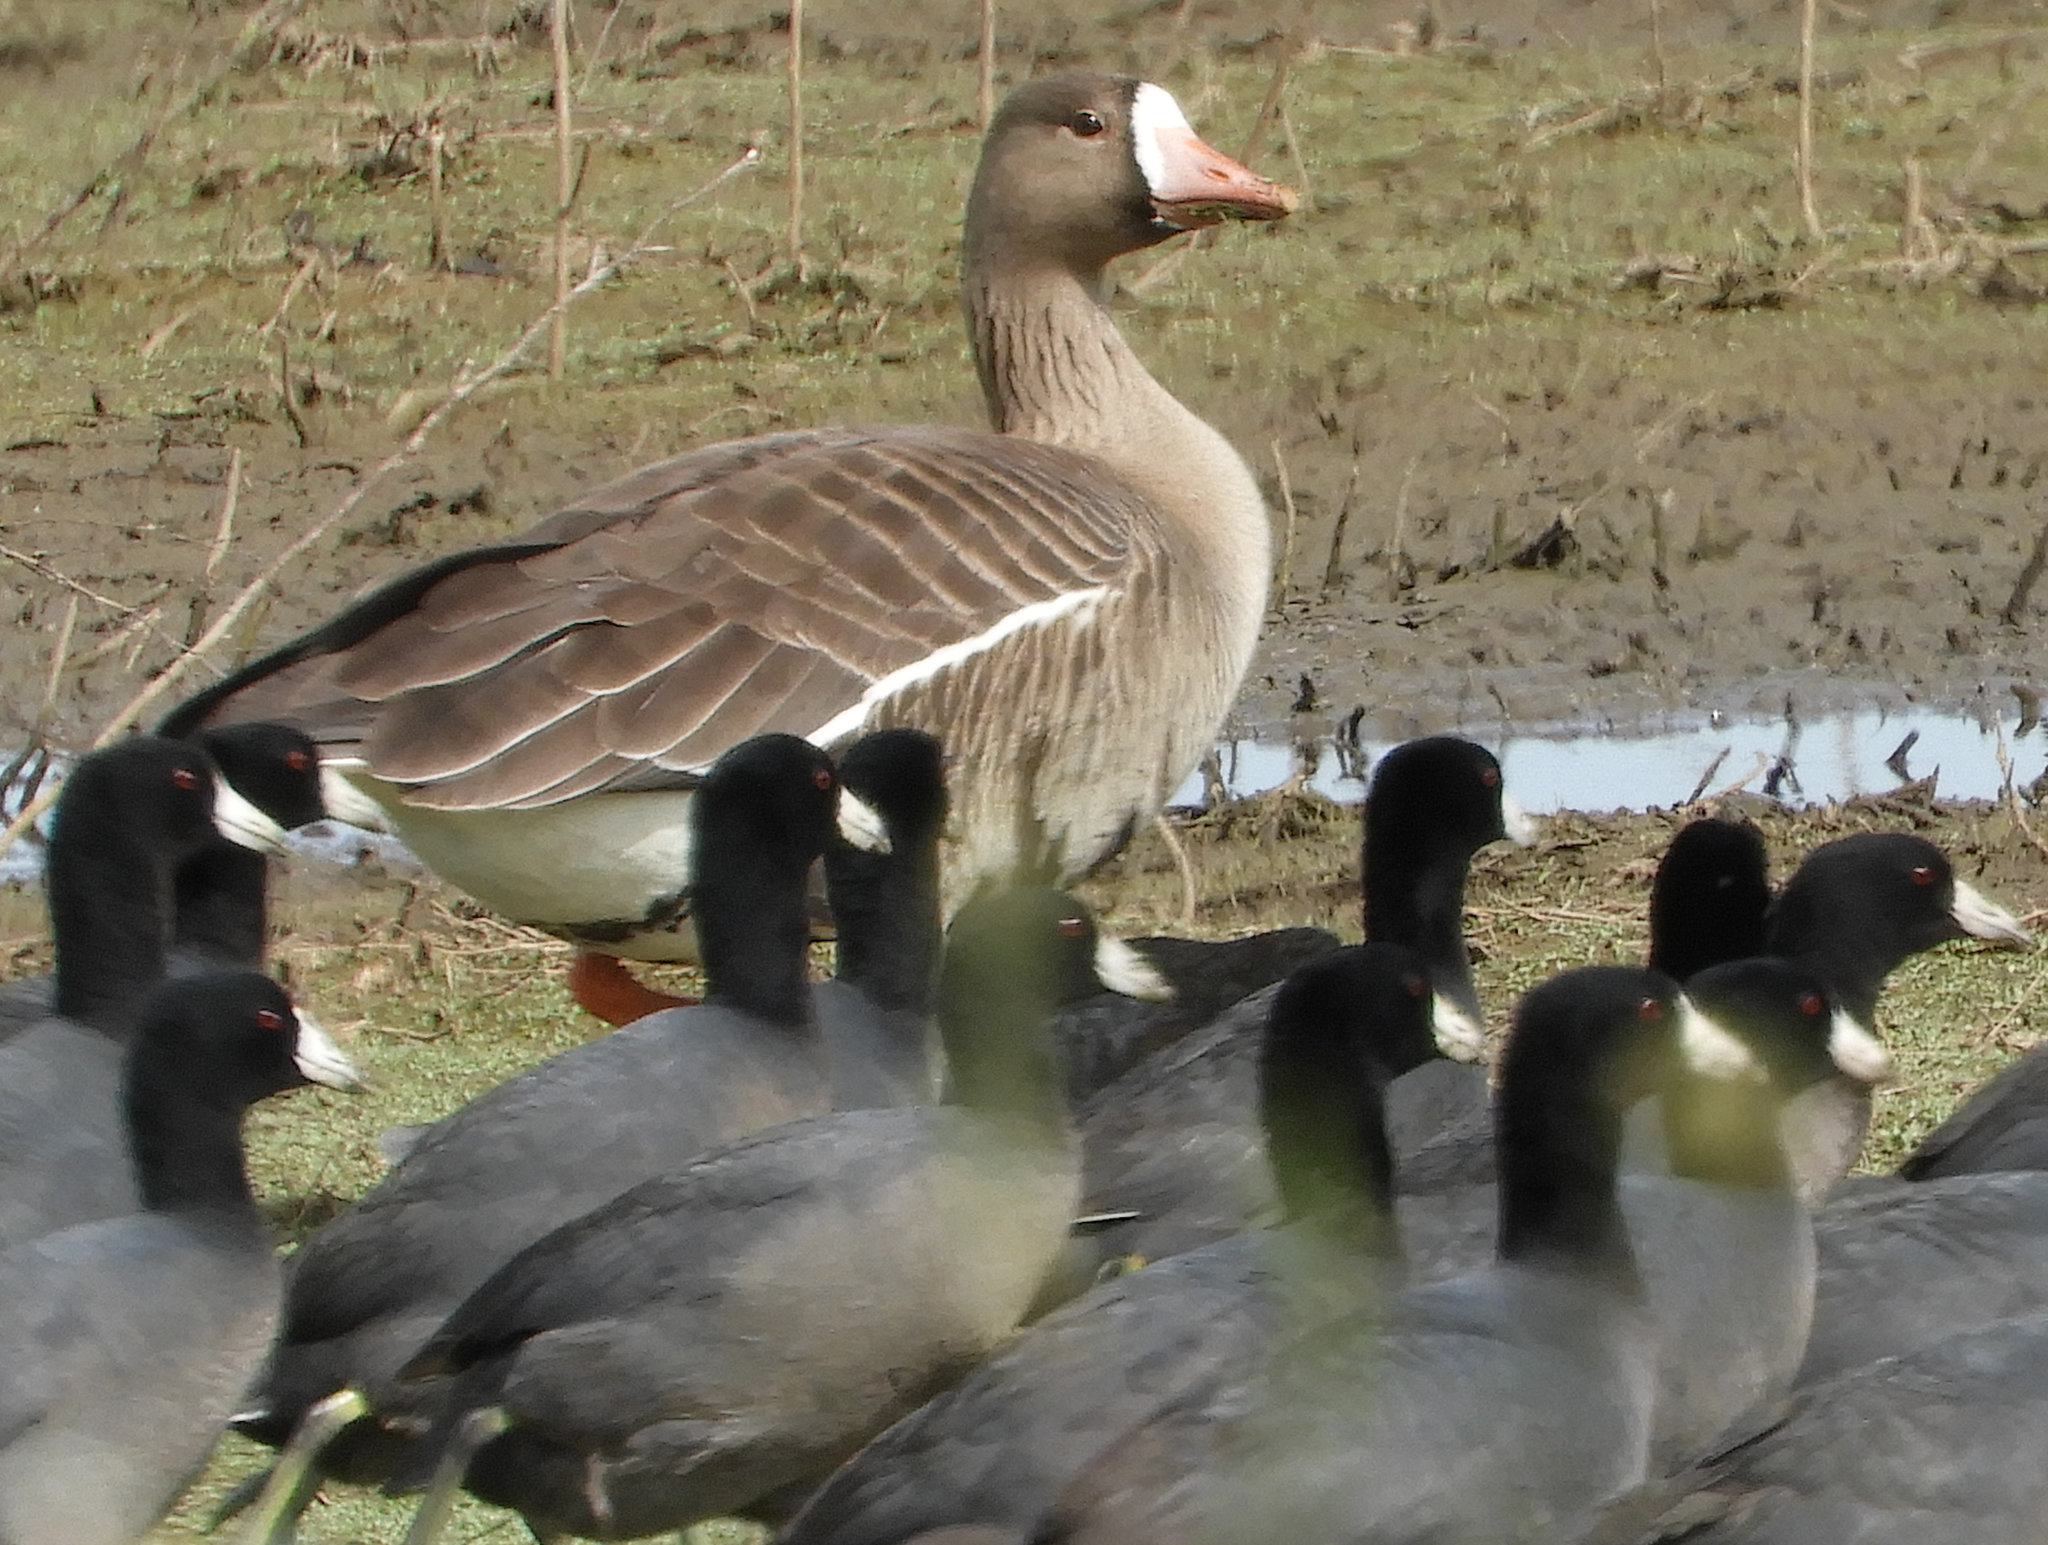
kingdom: Animalia
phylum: Chordata
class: Aves
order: Gruiformes
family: Rallidae
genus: Fulica
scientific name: Fulica americana
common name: American coot
